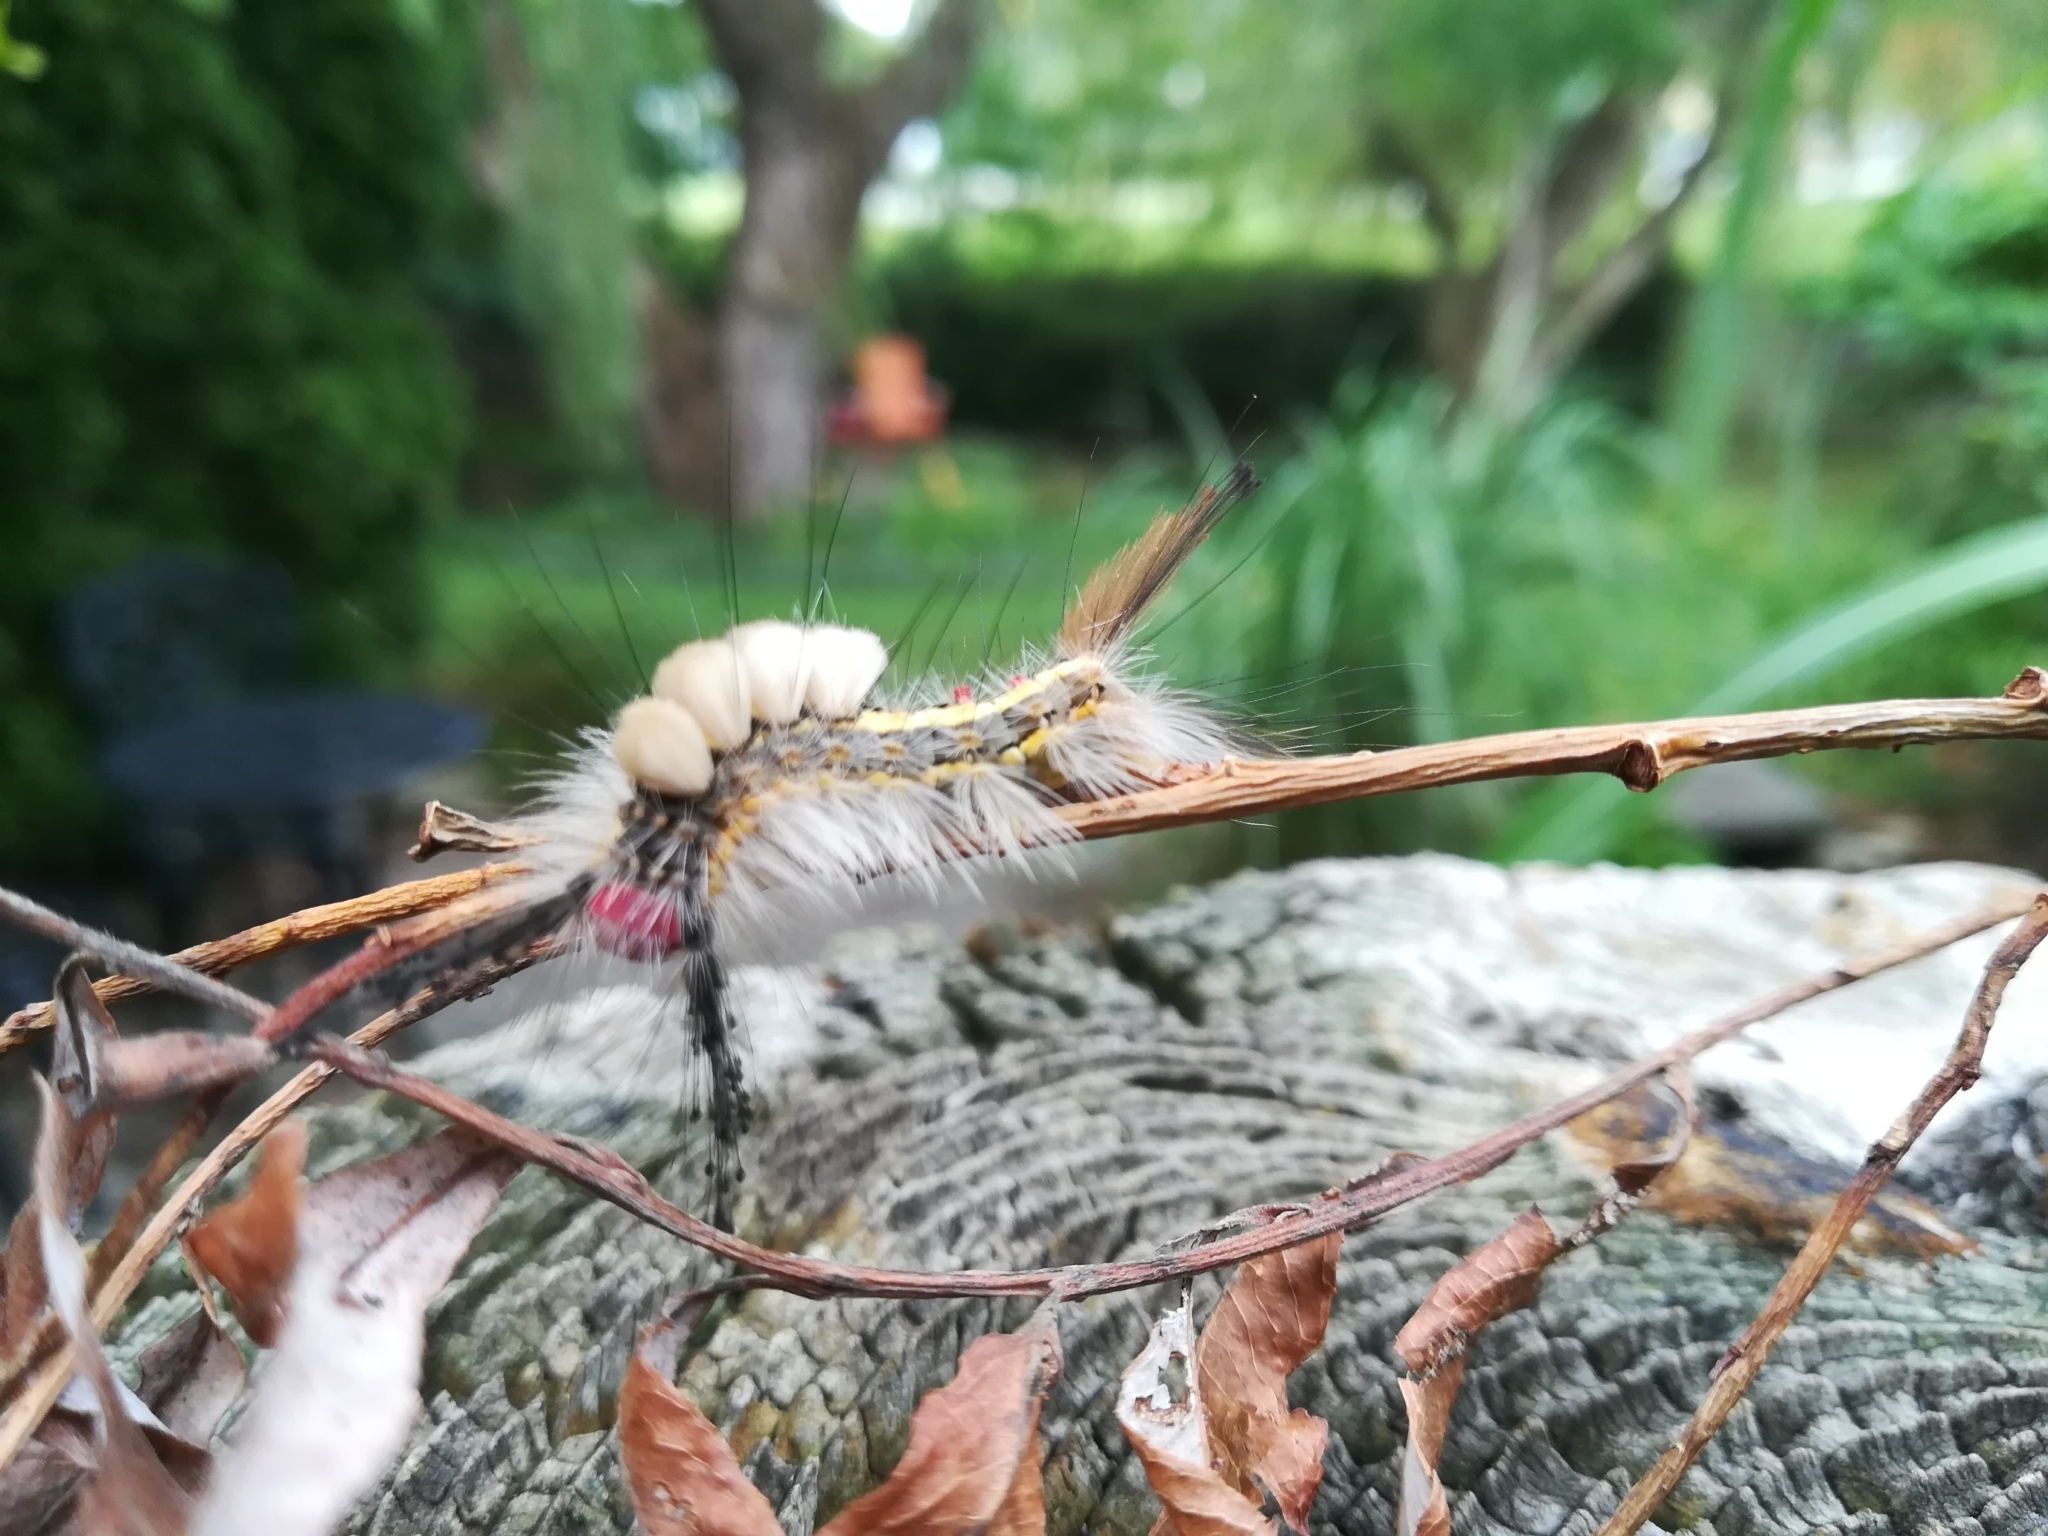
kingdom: Animalia
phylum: Arthropoda
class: Insecta
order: Lepidoptera
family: Erebidae
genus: Orgyia
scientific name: Orgyia leucostigma
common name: White-marked tussock moth
